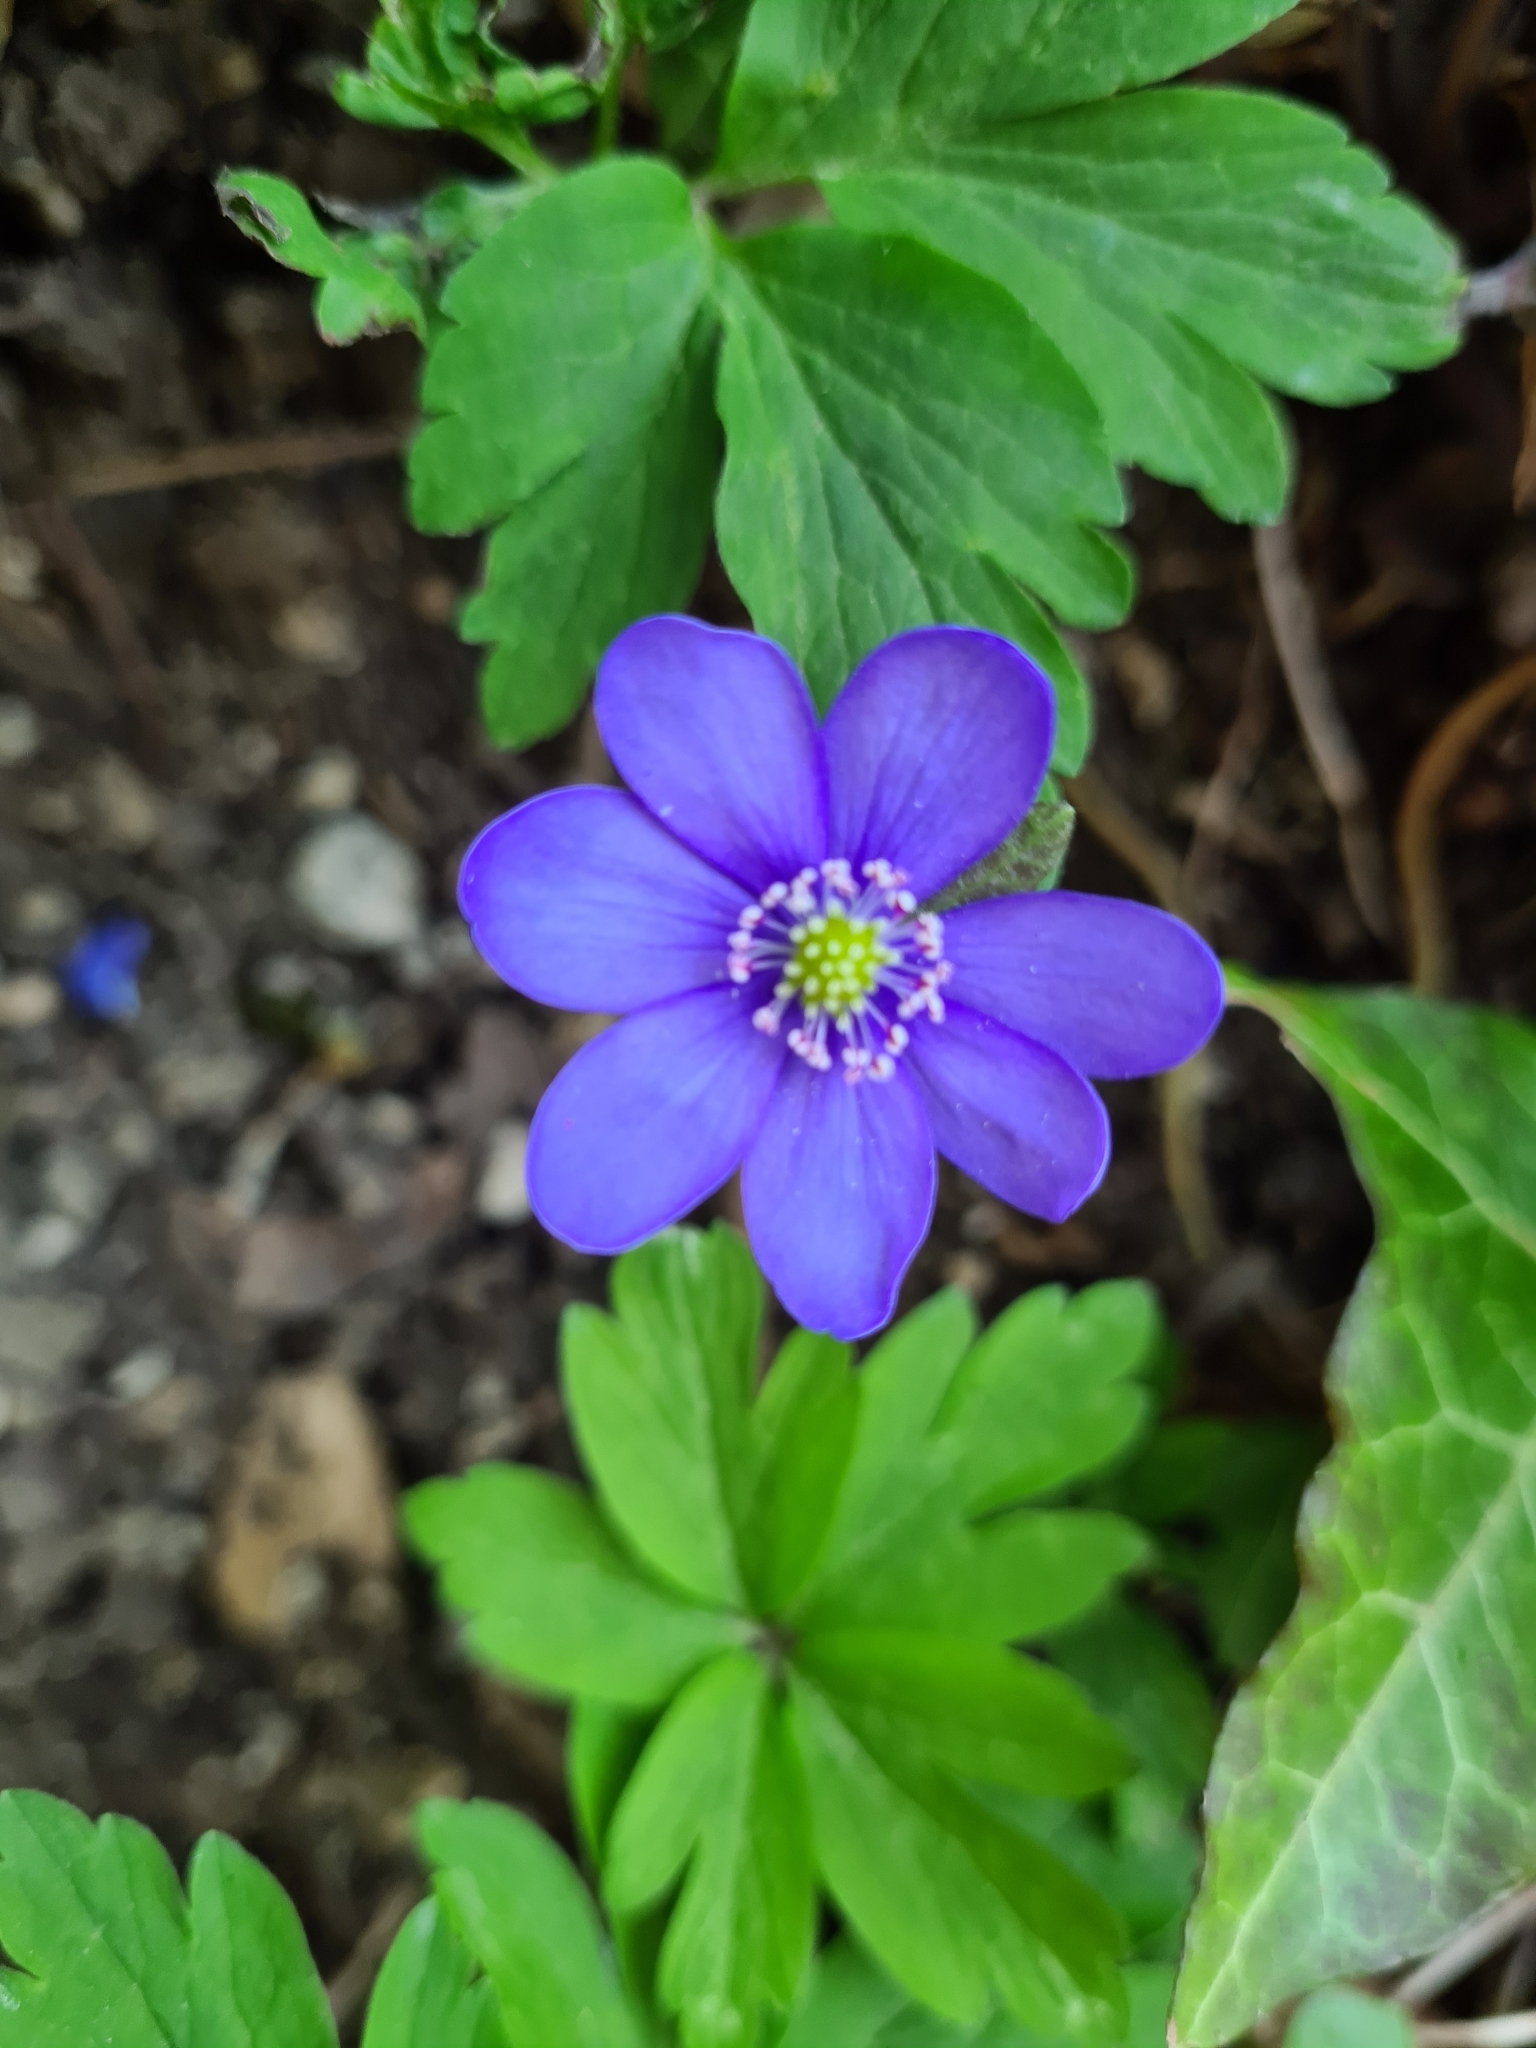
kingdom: Plantae
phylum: Tracheophyta
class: Magnoliopsida
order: Ranunculales
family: Ranunculaceae
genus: Hepatica
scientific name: Hepatica nobilis
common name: Liverleaf
